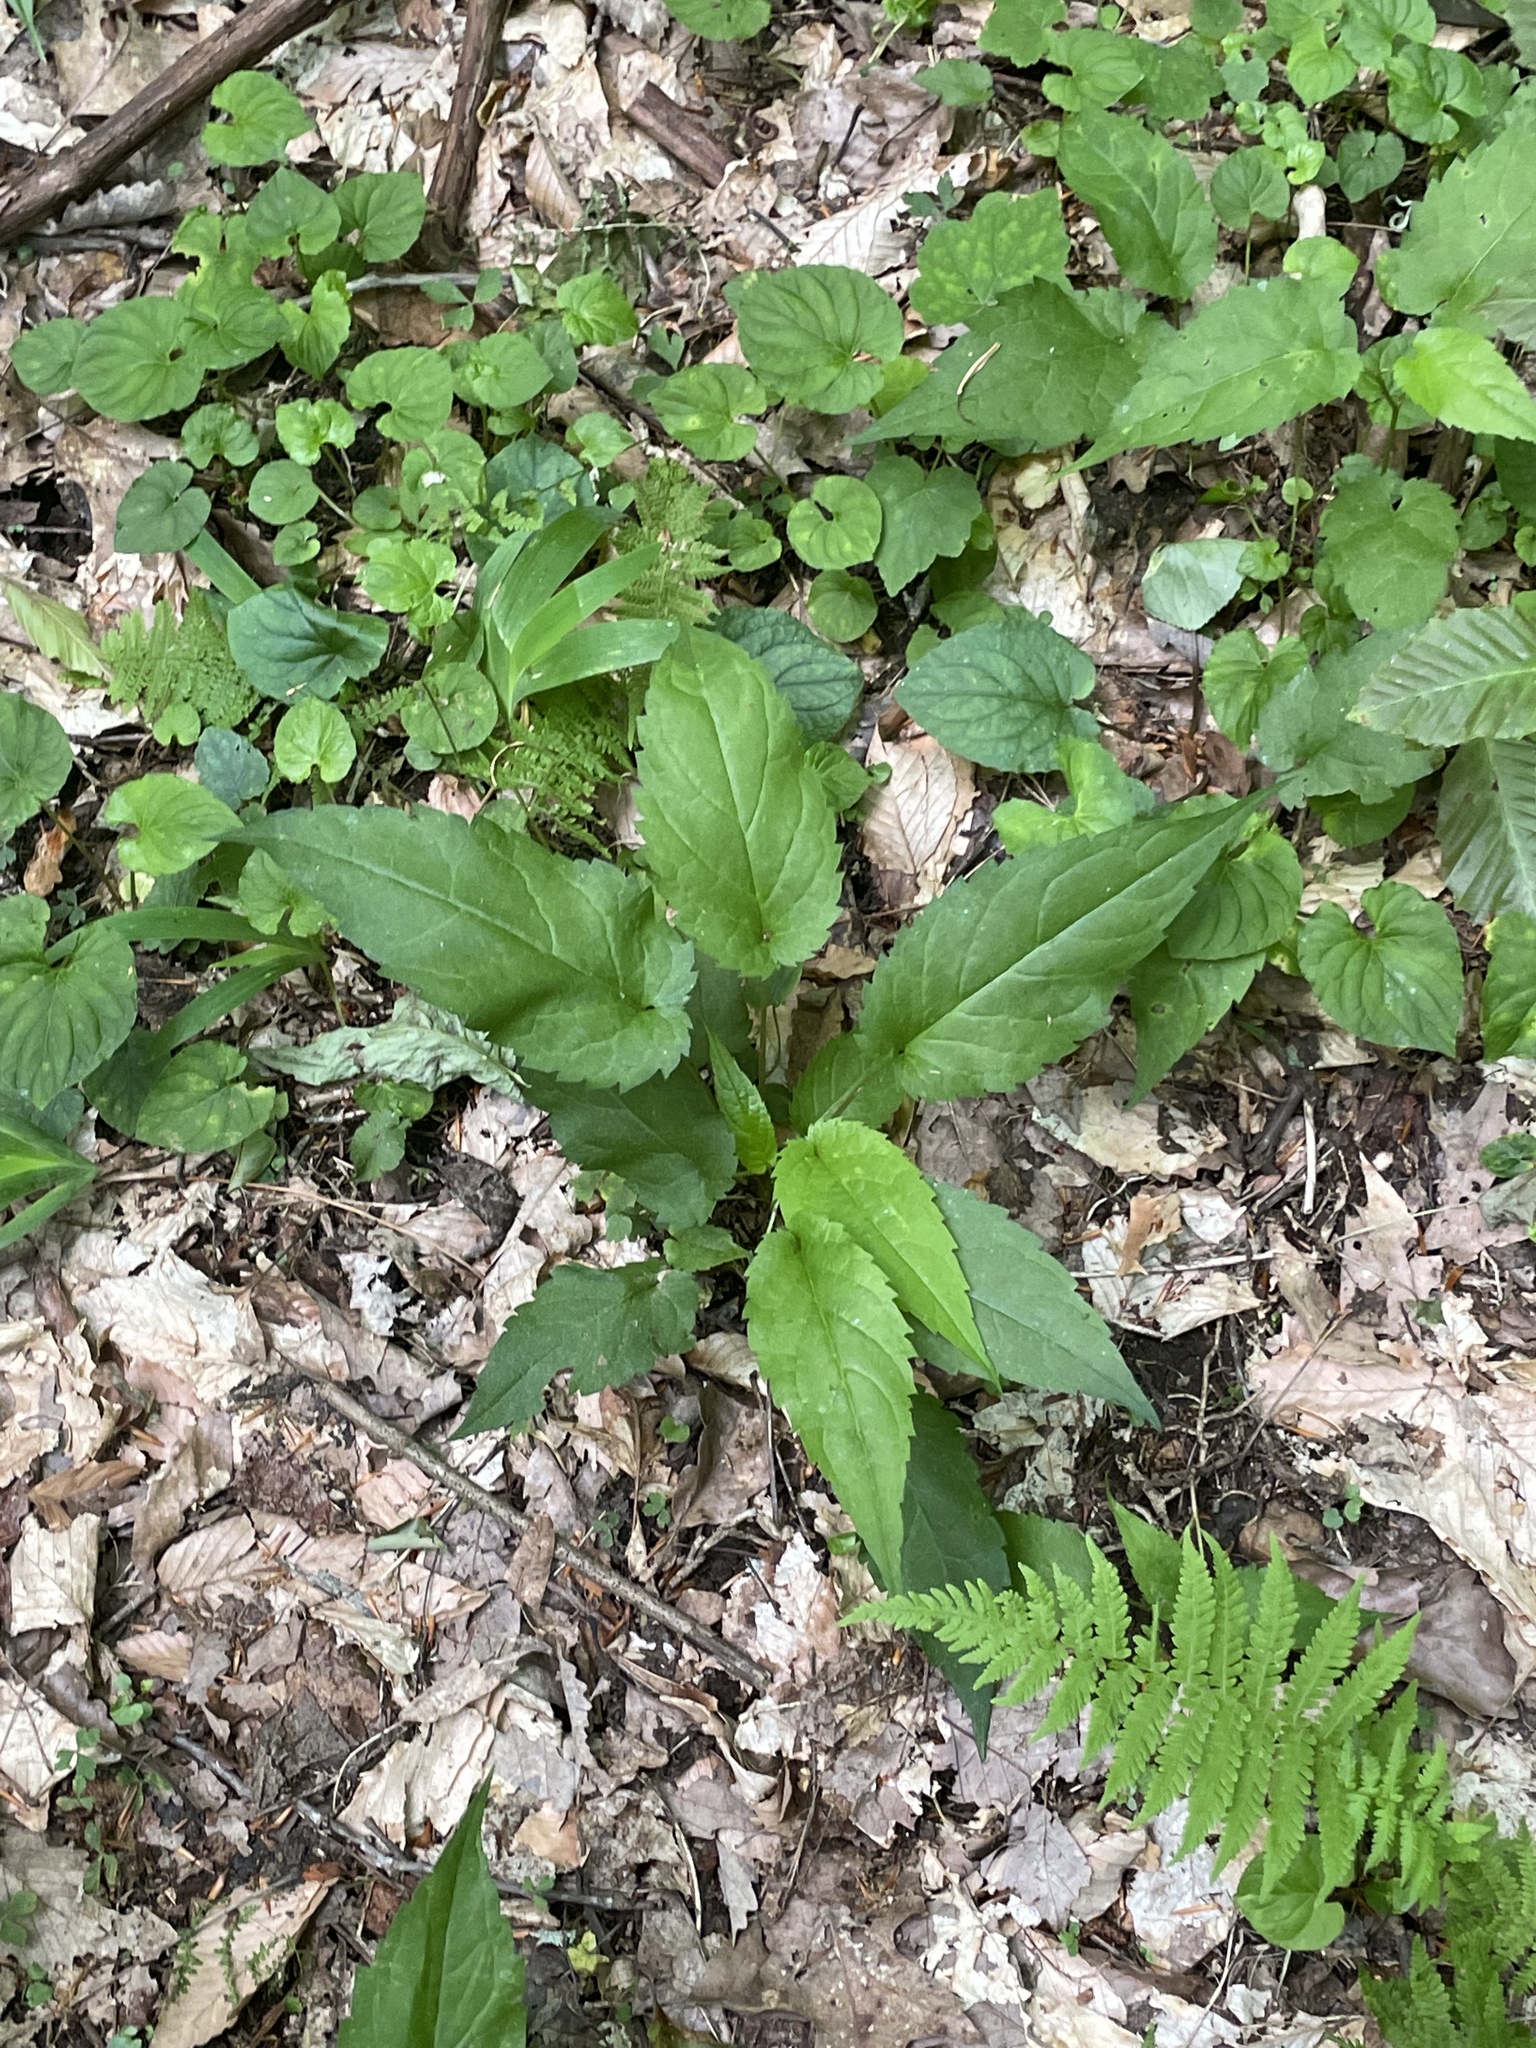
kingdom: Plantae
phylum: Tracheophyta
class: Magnoliopsida
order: Asterales
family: Asteraceae
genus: Eurybia
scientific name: Eurybia divaricata
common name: White wood aster
